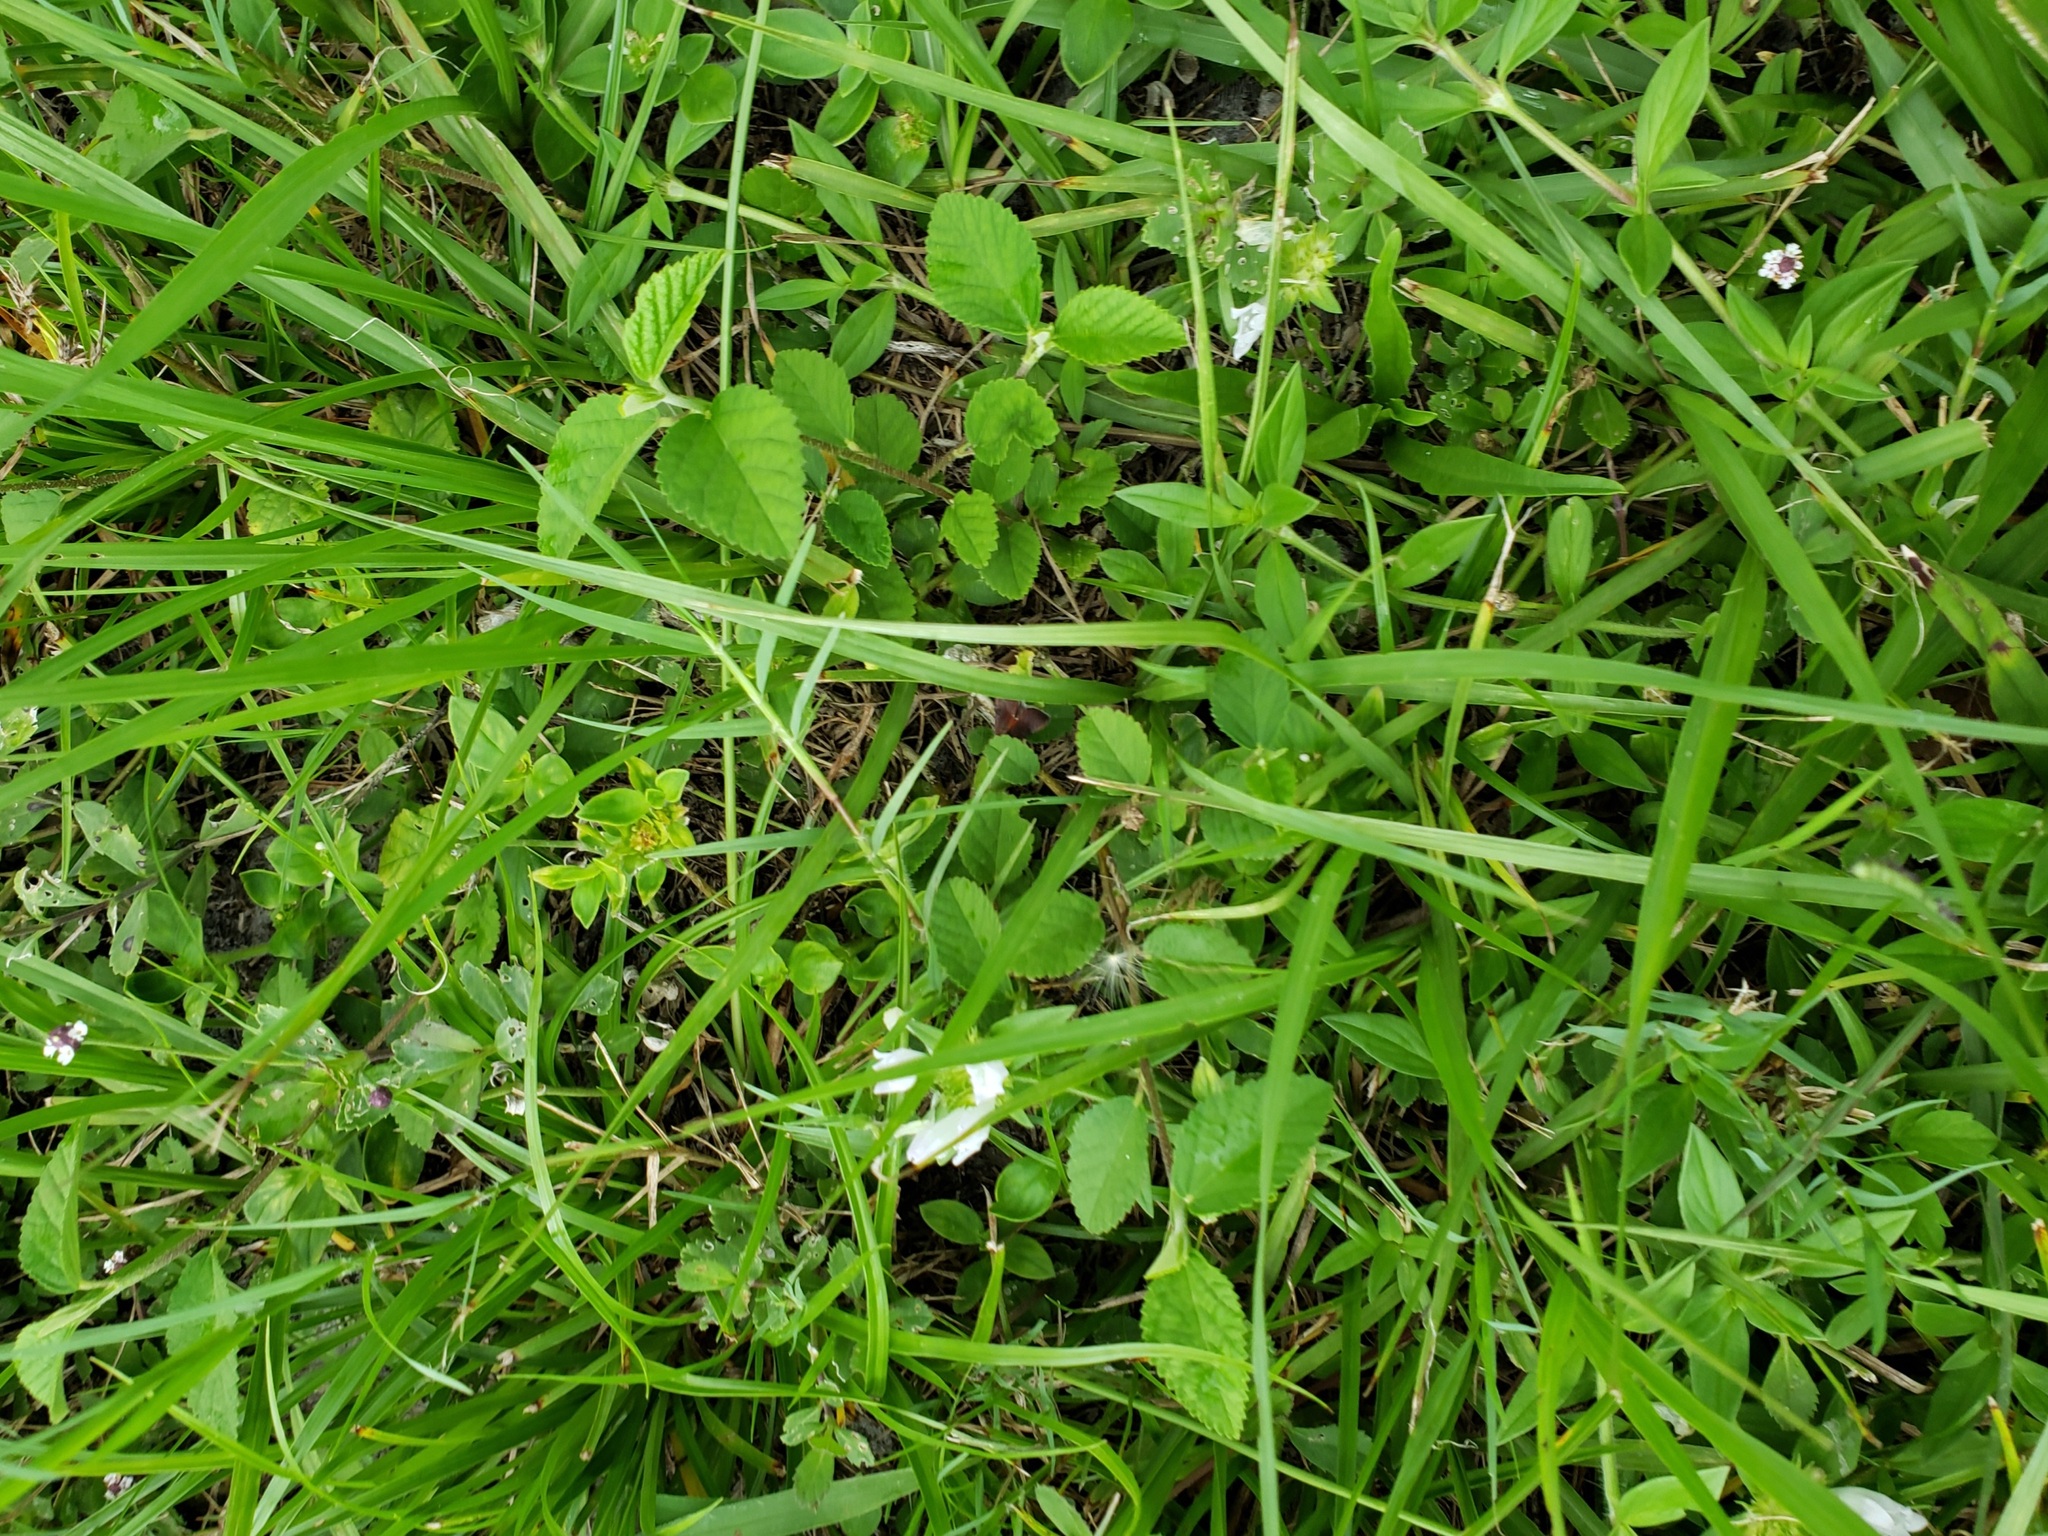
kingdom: Plantae
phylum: Tracheophyta
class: Magnoliopsida
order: Gentianales
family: Rubiaceae
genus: Richardia
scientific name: Richardia grandiflora
